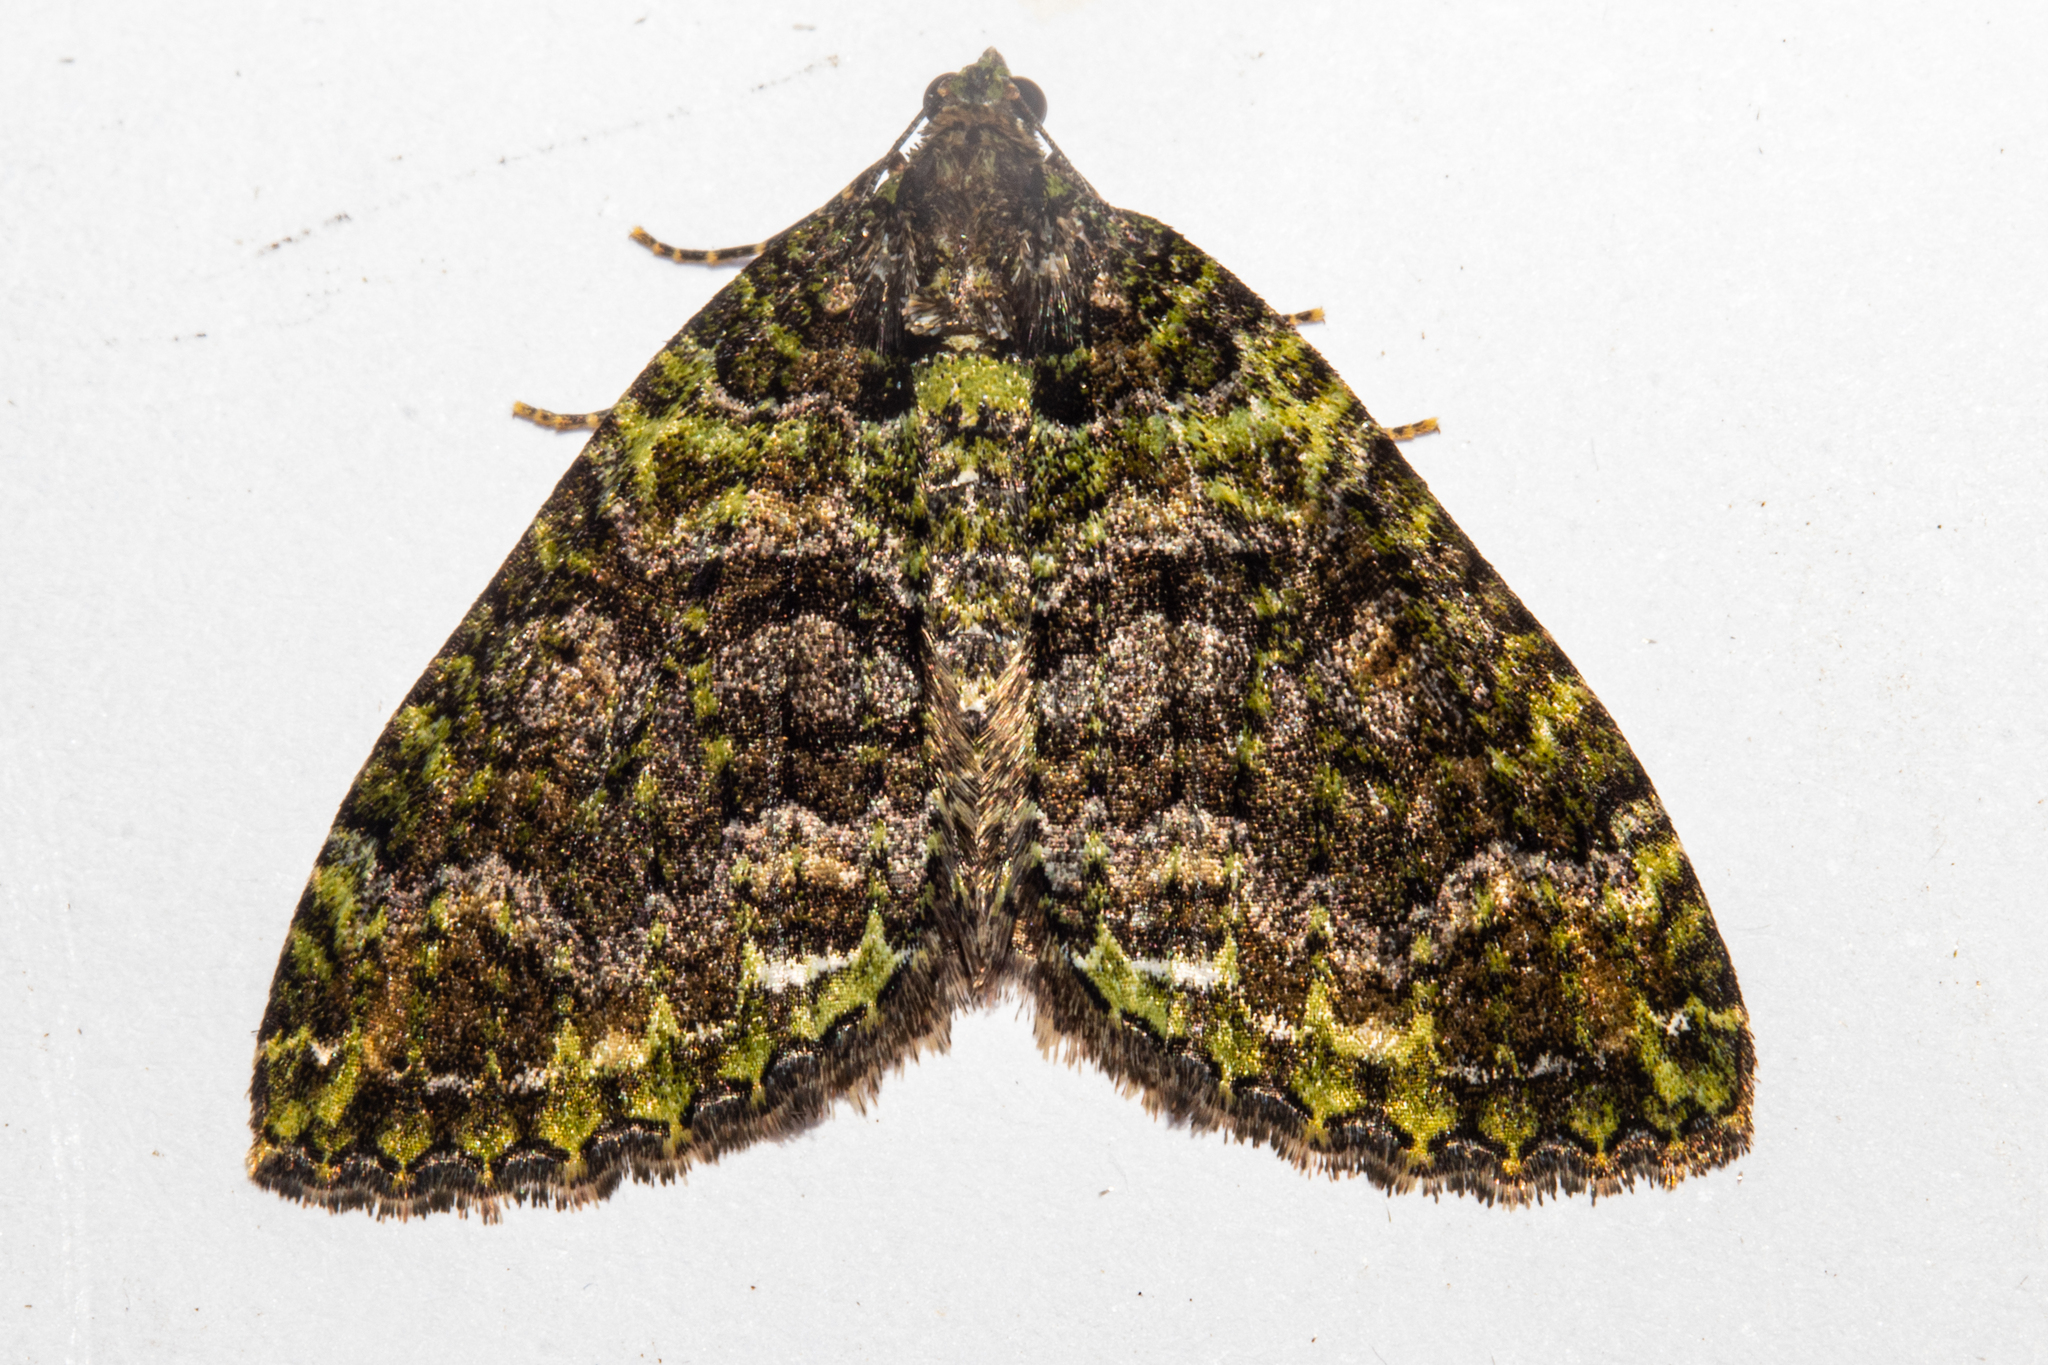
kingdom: Animalia
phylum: Arthropoda
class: Insecta
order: Lepidoptera
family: Geometridae
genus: Austrocidaria
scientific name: Austrocidaria similata
